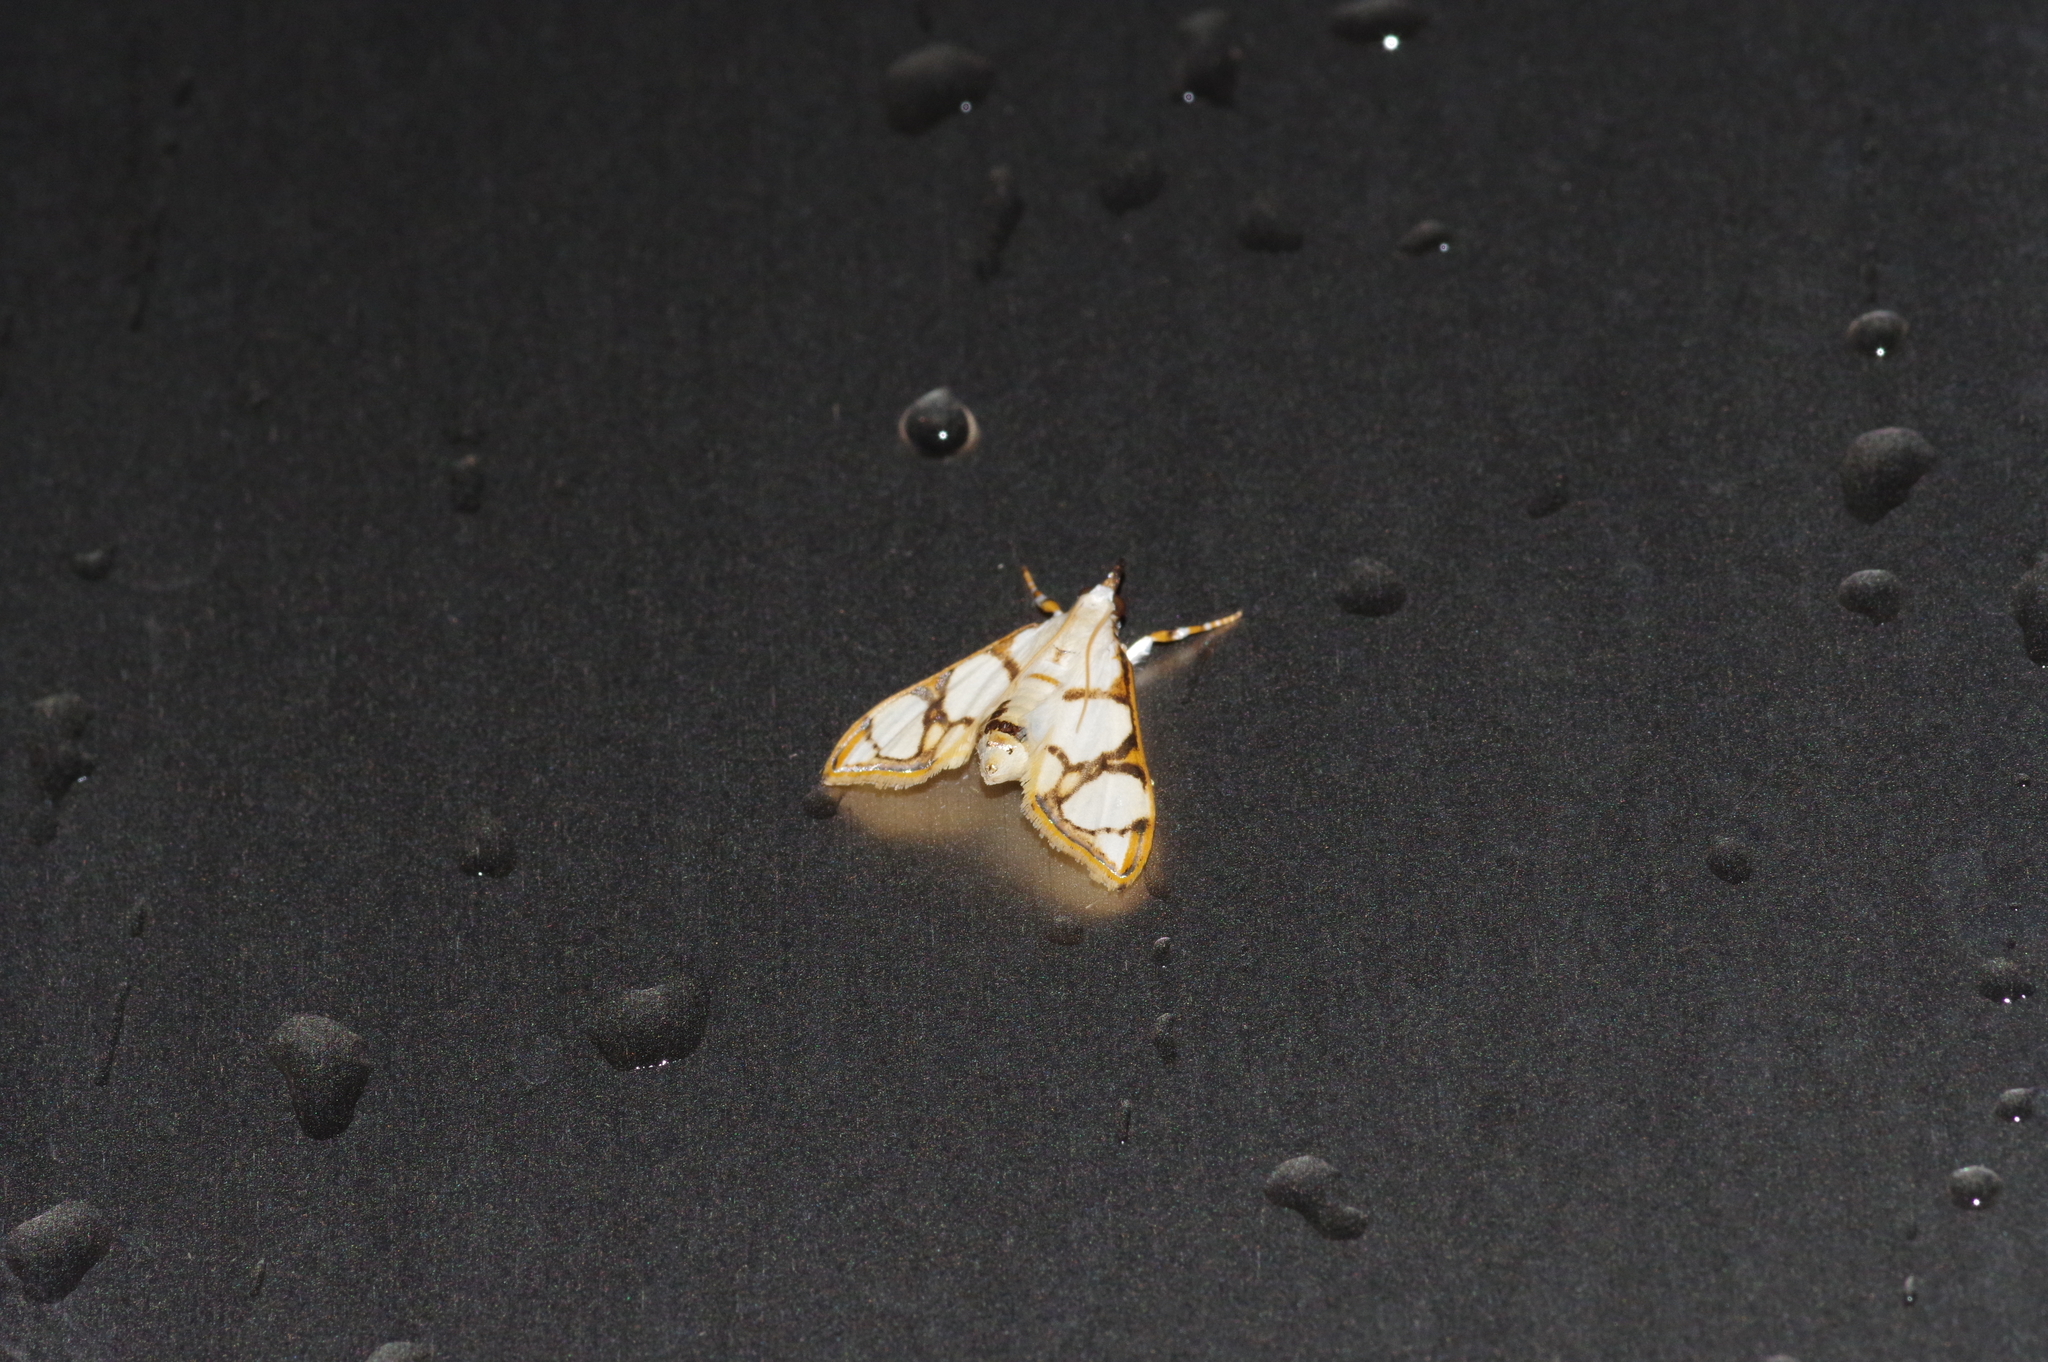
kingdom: Animalia
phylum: Arthropoda
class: Insecta
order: Lepidoptera
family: Crambidae
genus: Cirrhochrista
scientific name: Cirrhochrista kosemponialis
